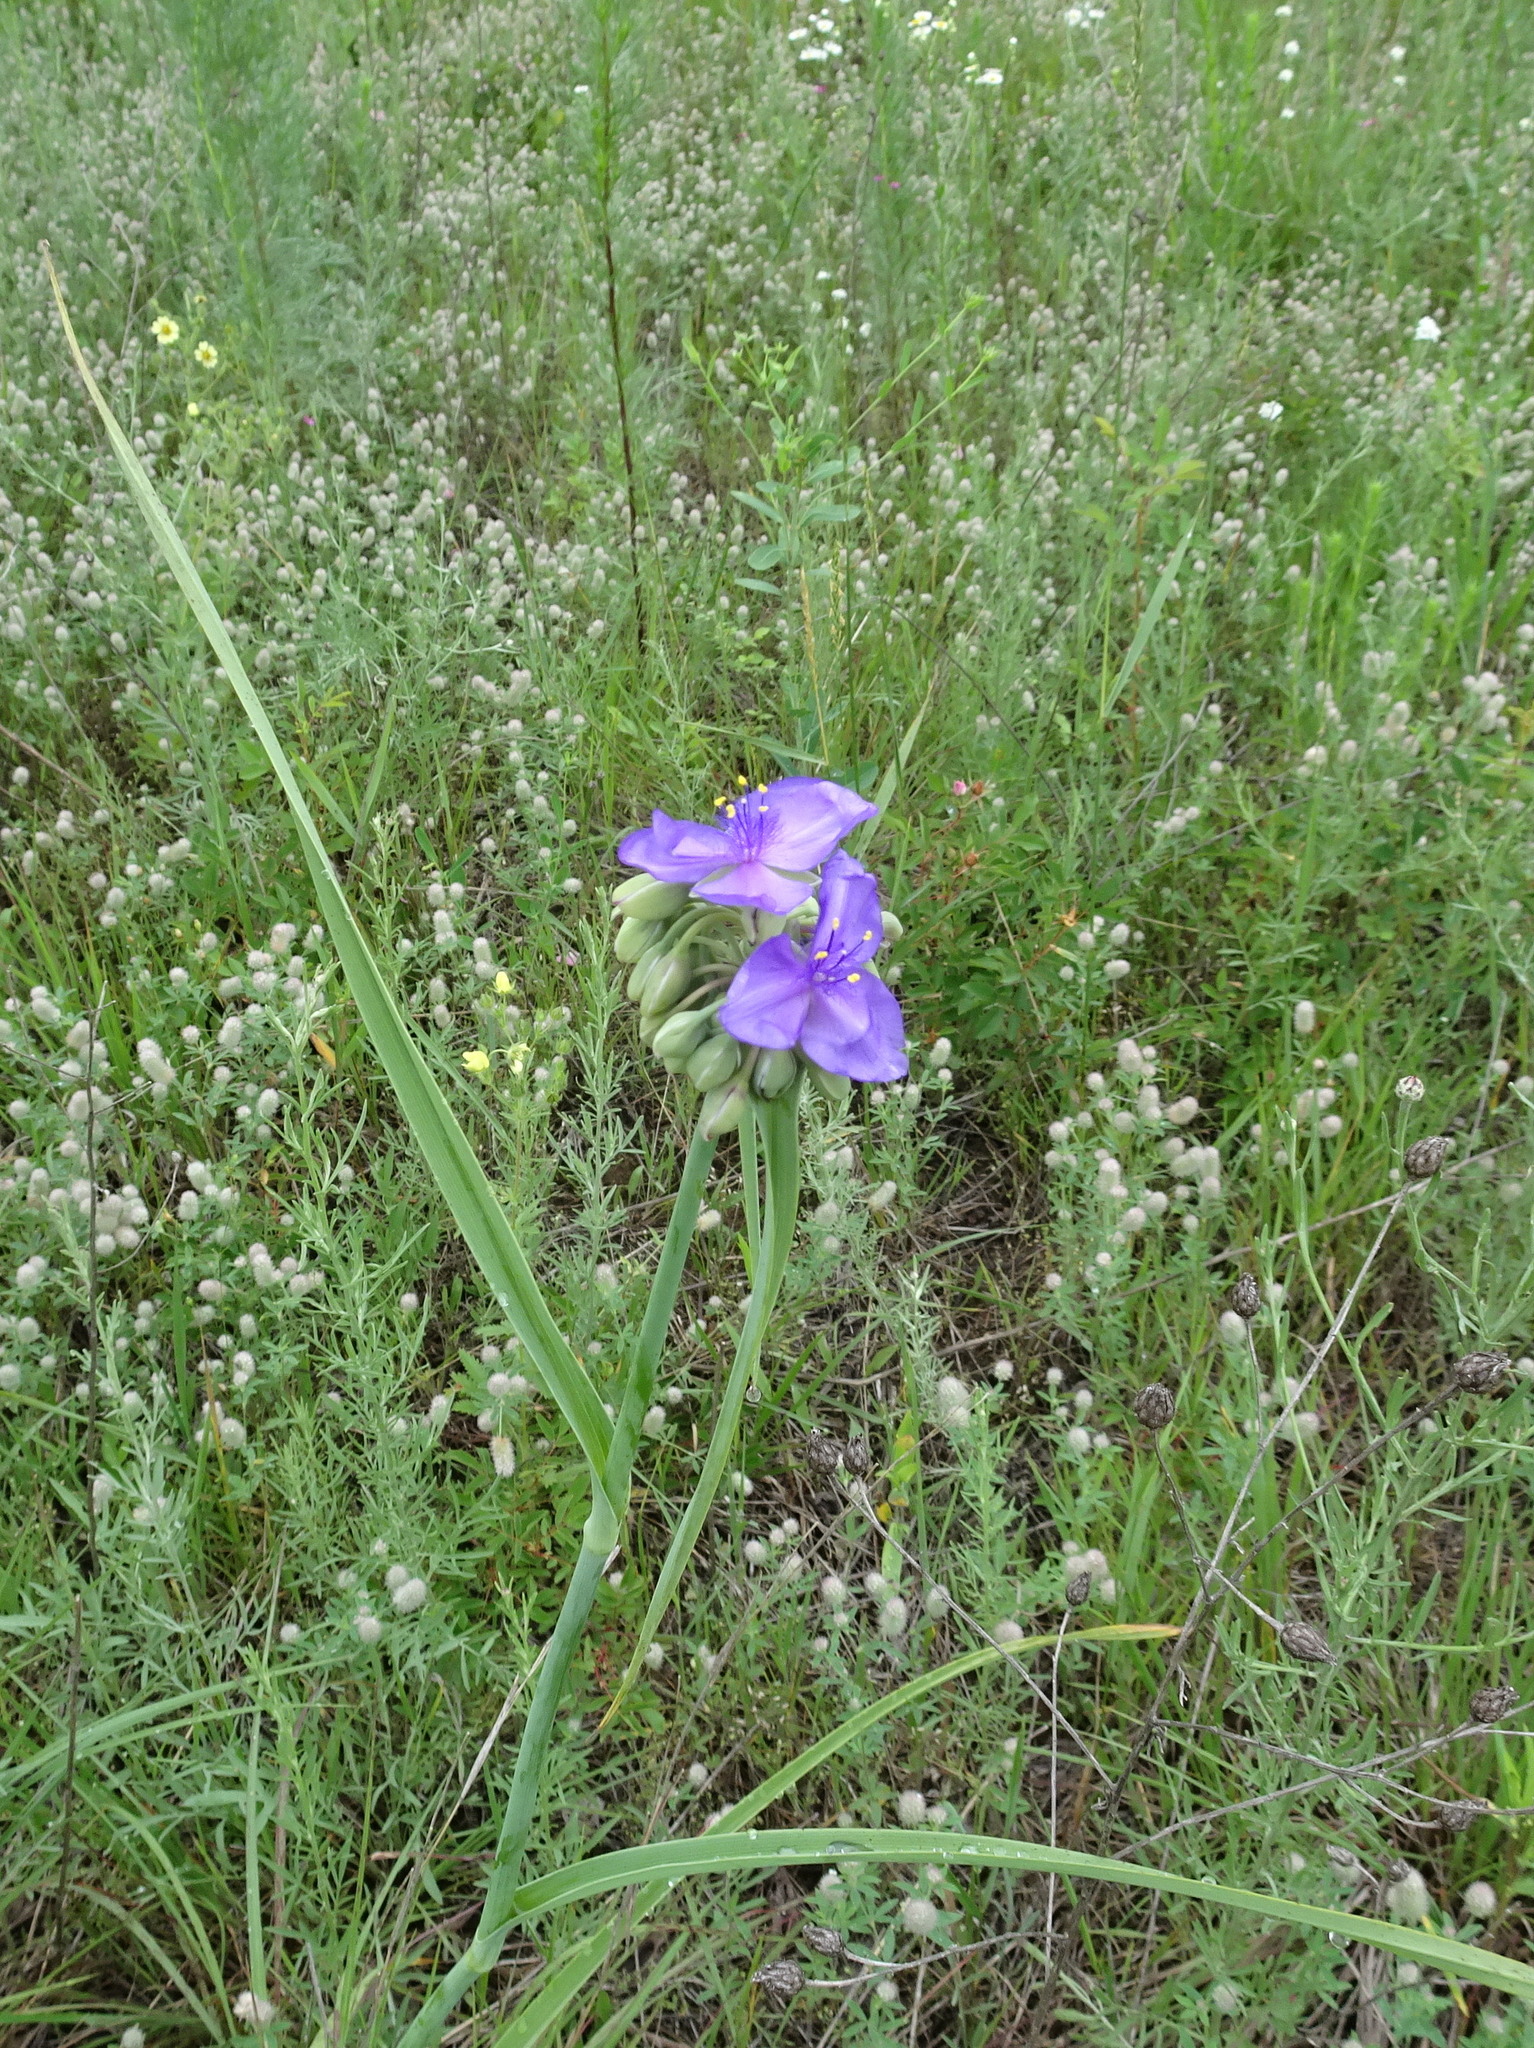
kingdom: Plantae
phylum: Tracheophyta
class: Liliopsida
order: Commelinales
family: Commelinaceae
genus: Tradescantia
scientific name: Tradescantia ohiensis
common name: Ohio spiderwort
